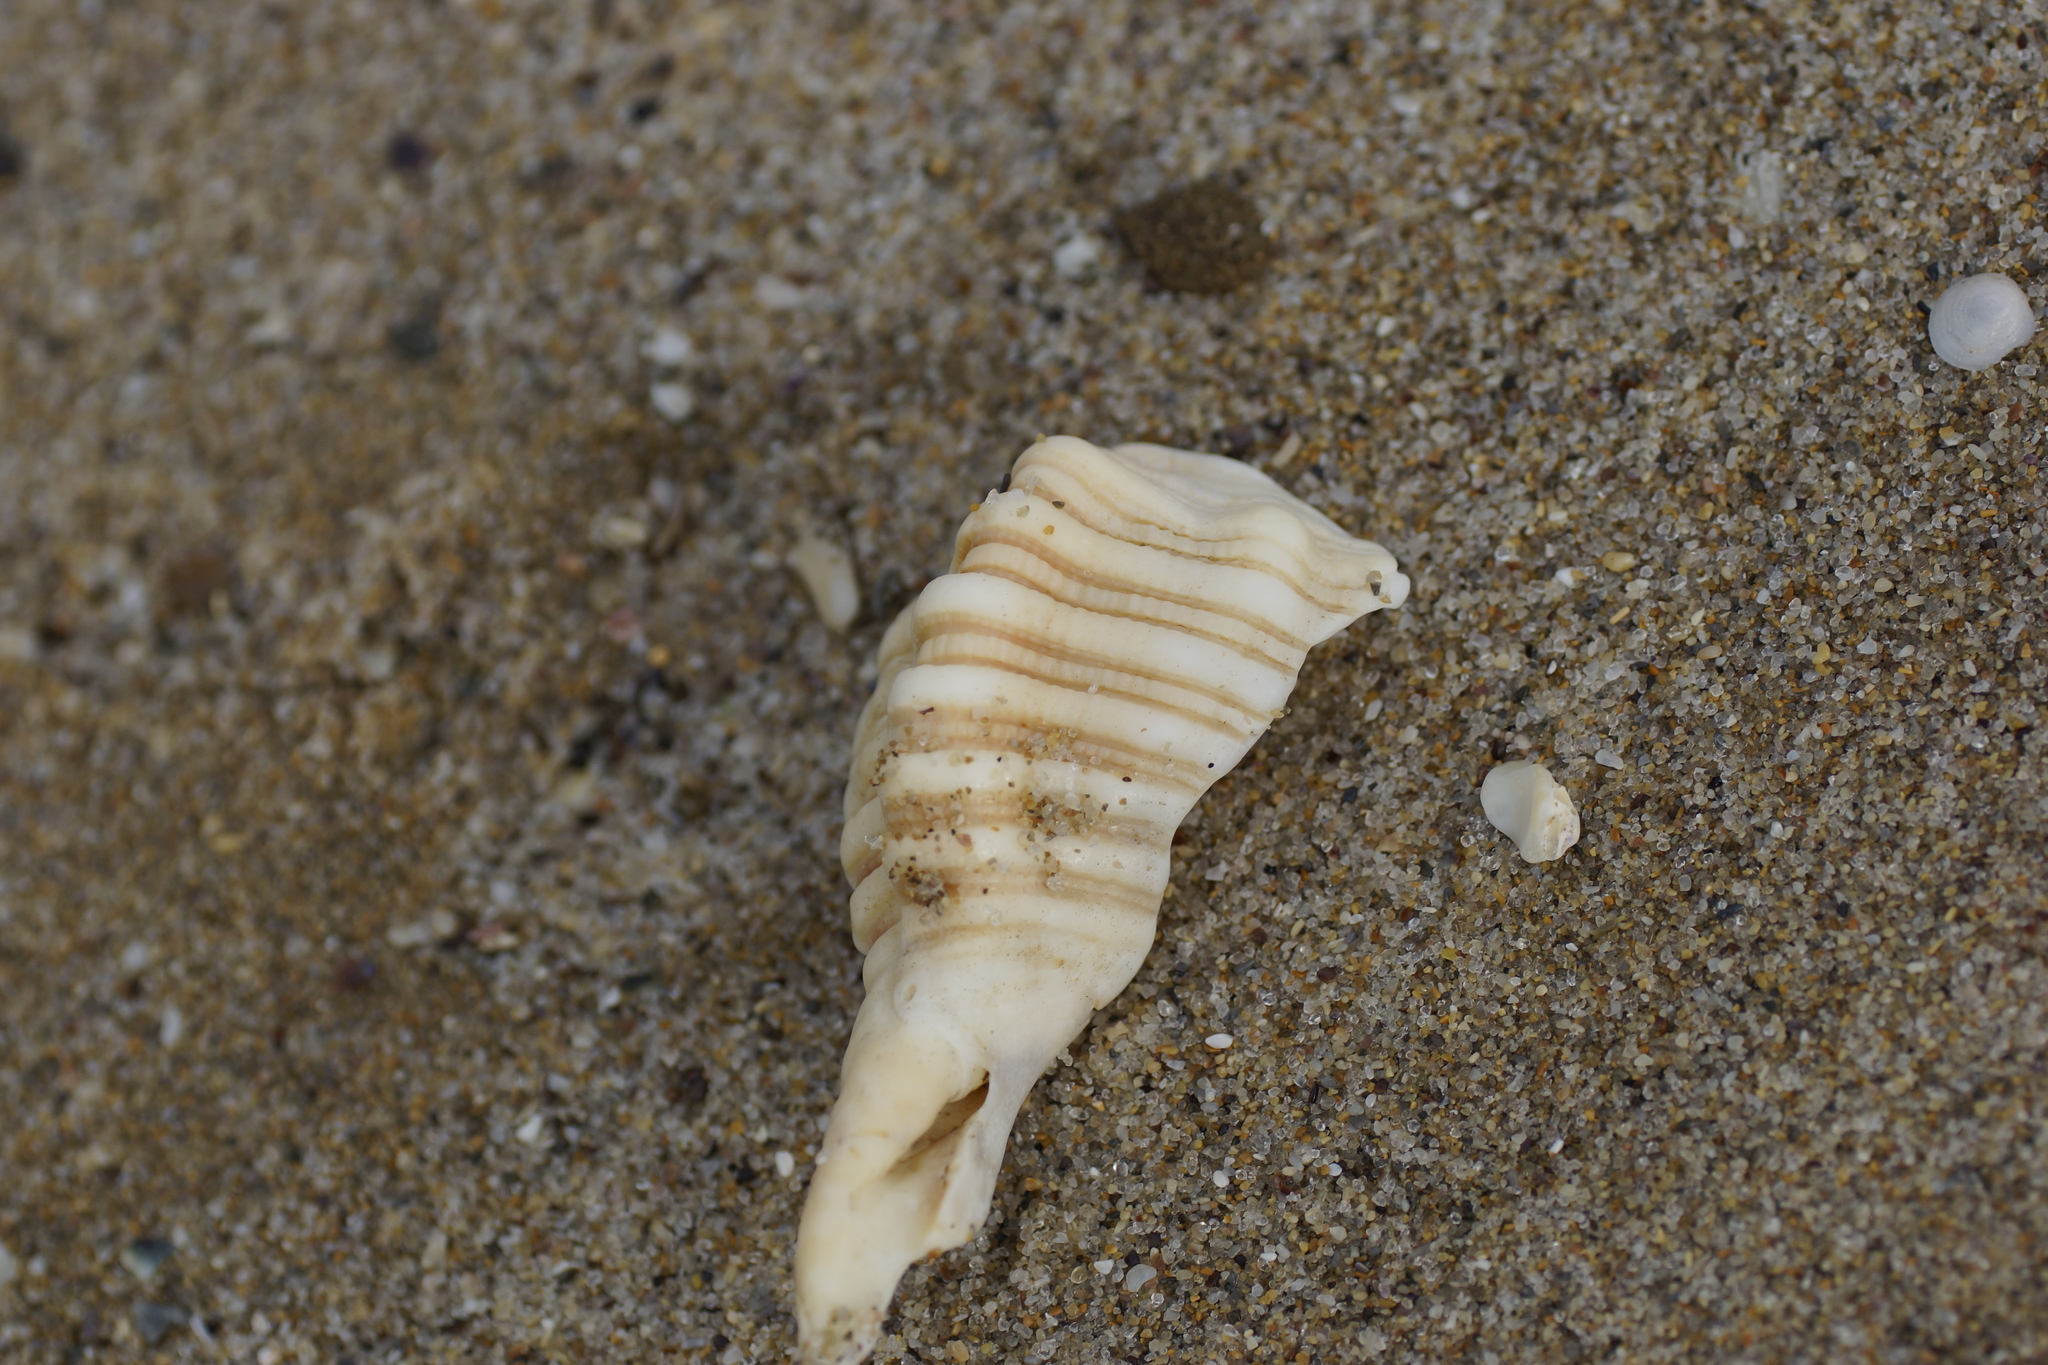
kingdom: Animalia
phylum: Mollusca
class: Gastropoda
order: Littorinimorpha
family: Cymatiidae
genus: Cabestana
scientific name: Cabestana spengleri
